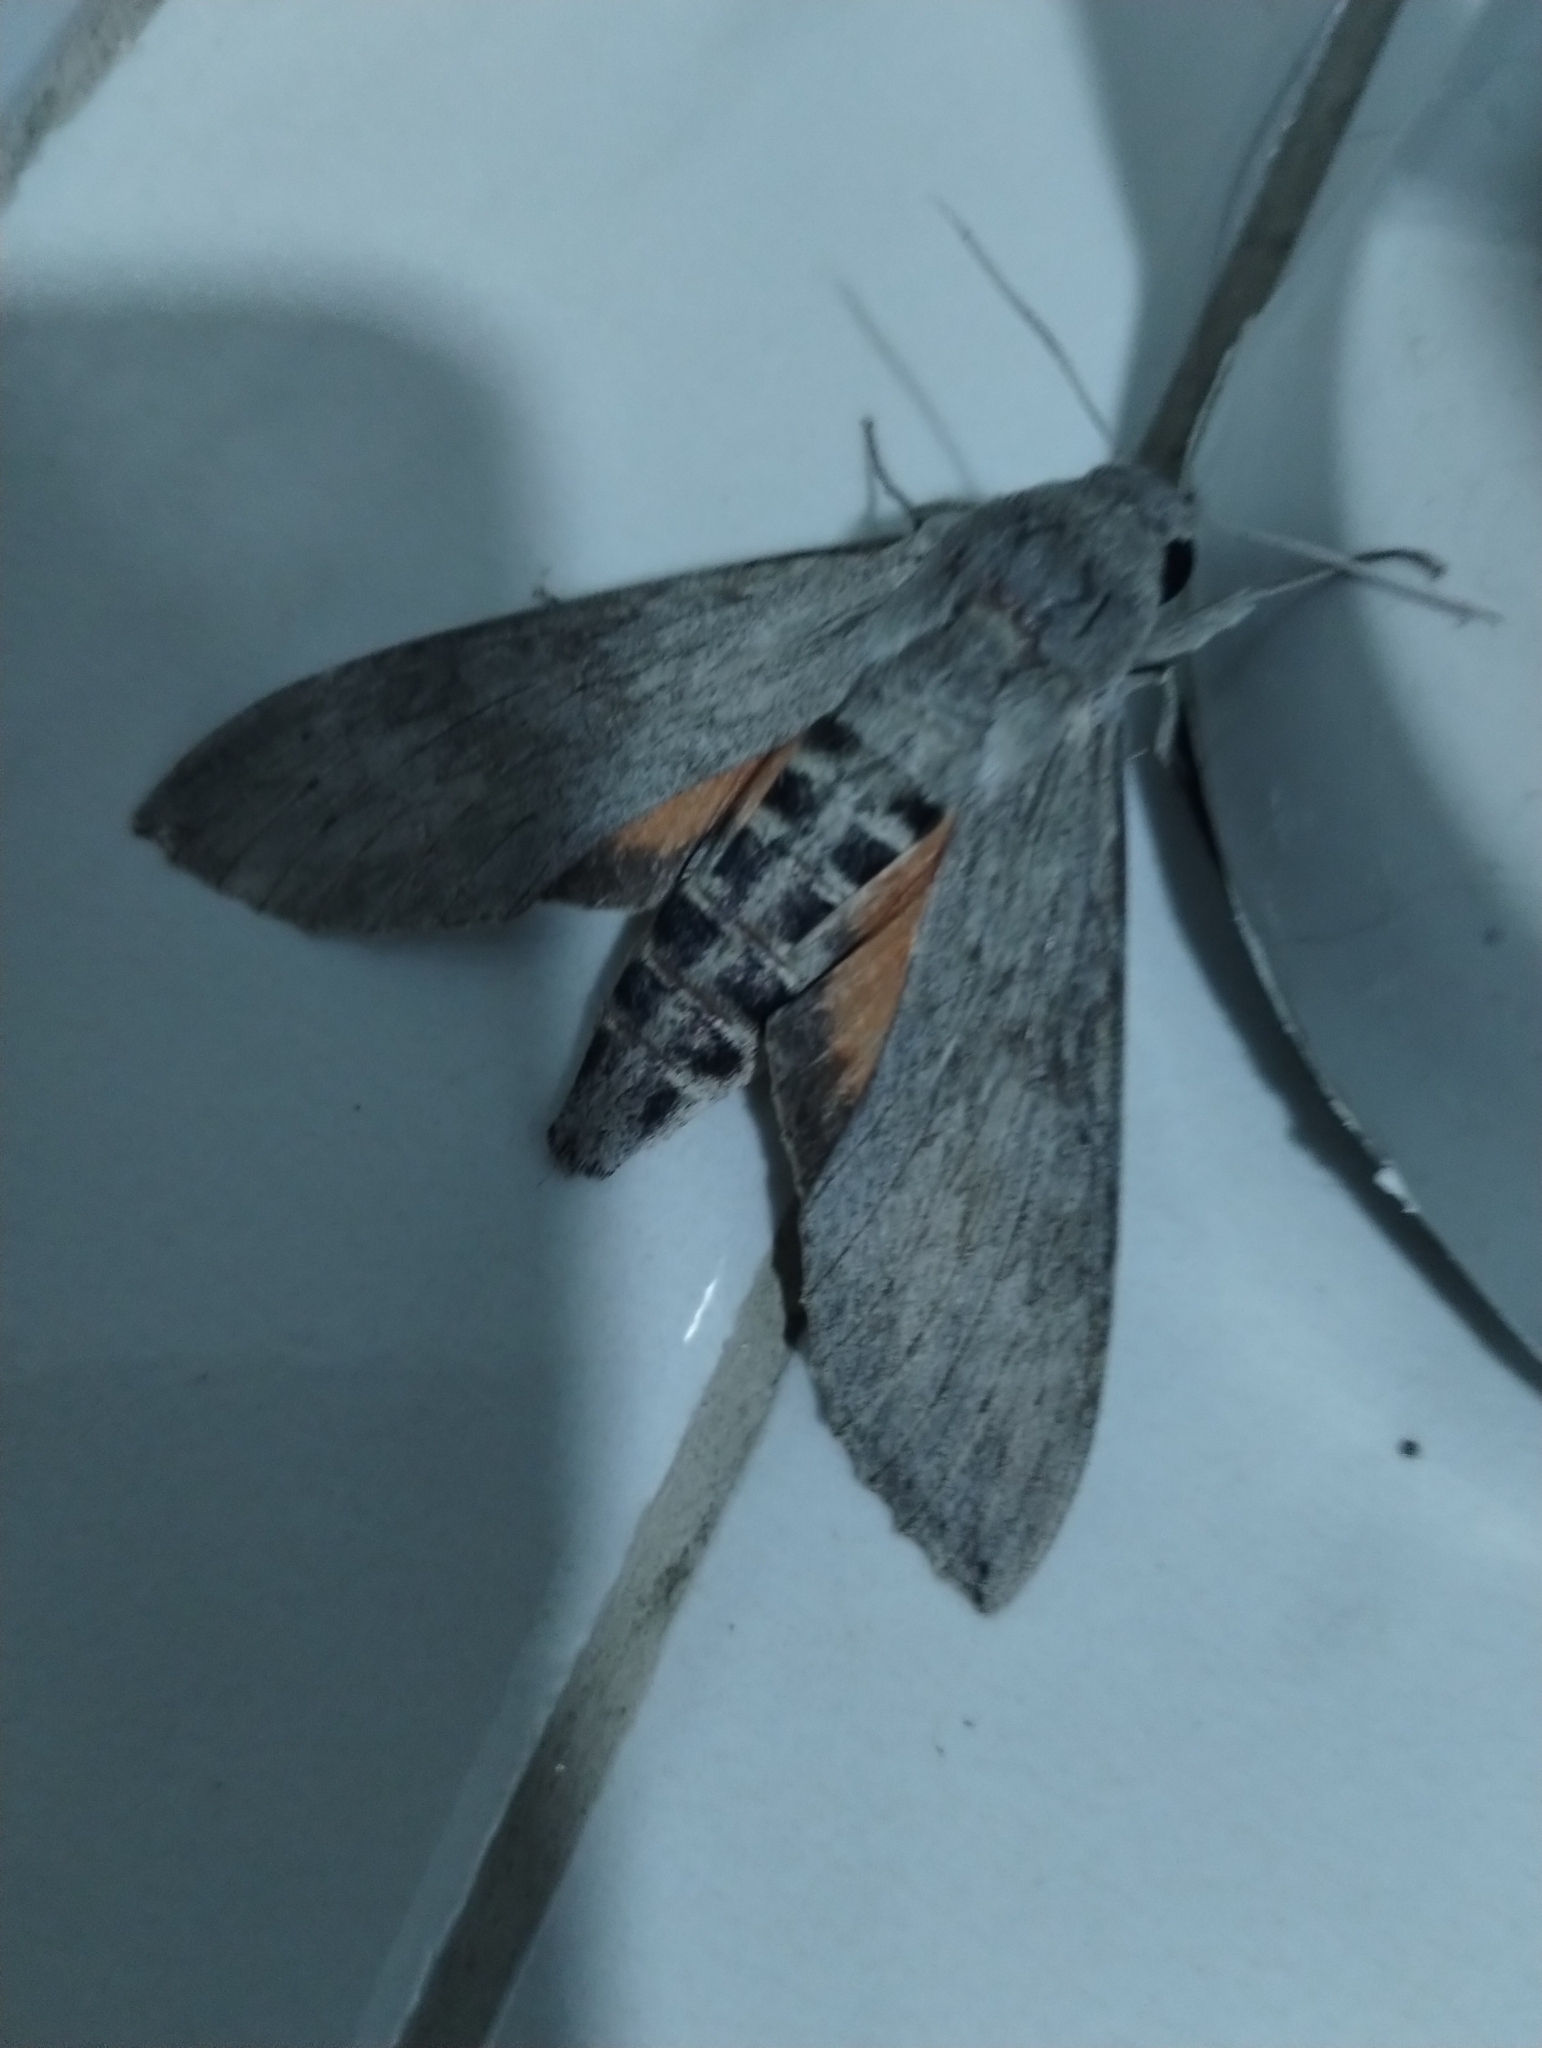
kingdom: Animalia
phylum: Arthropoda
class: Insecta
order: Lepidoptera
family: Sphingidae
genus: Erinnyis
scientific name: Erinnyis ello
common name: Ello sphinx
